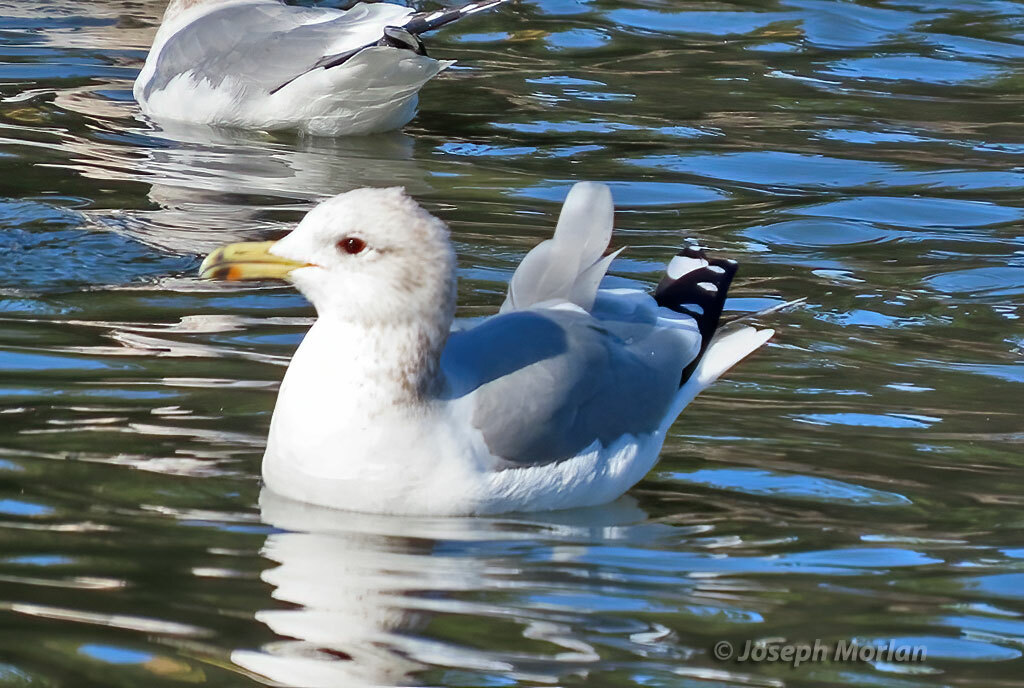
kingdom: Animalia
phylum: Chordata
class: Aves
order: Charadriiformes
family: Laridae
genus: Larus
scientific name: Larus californicus
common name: California gull
